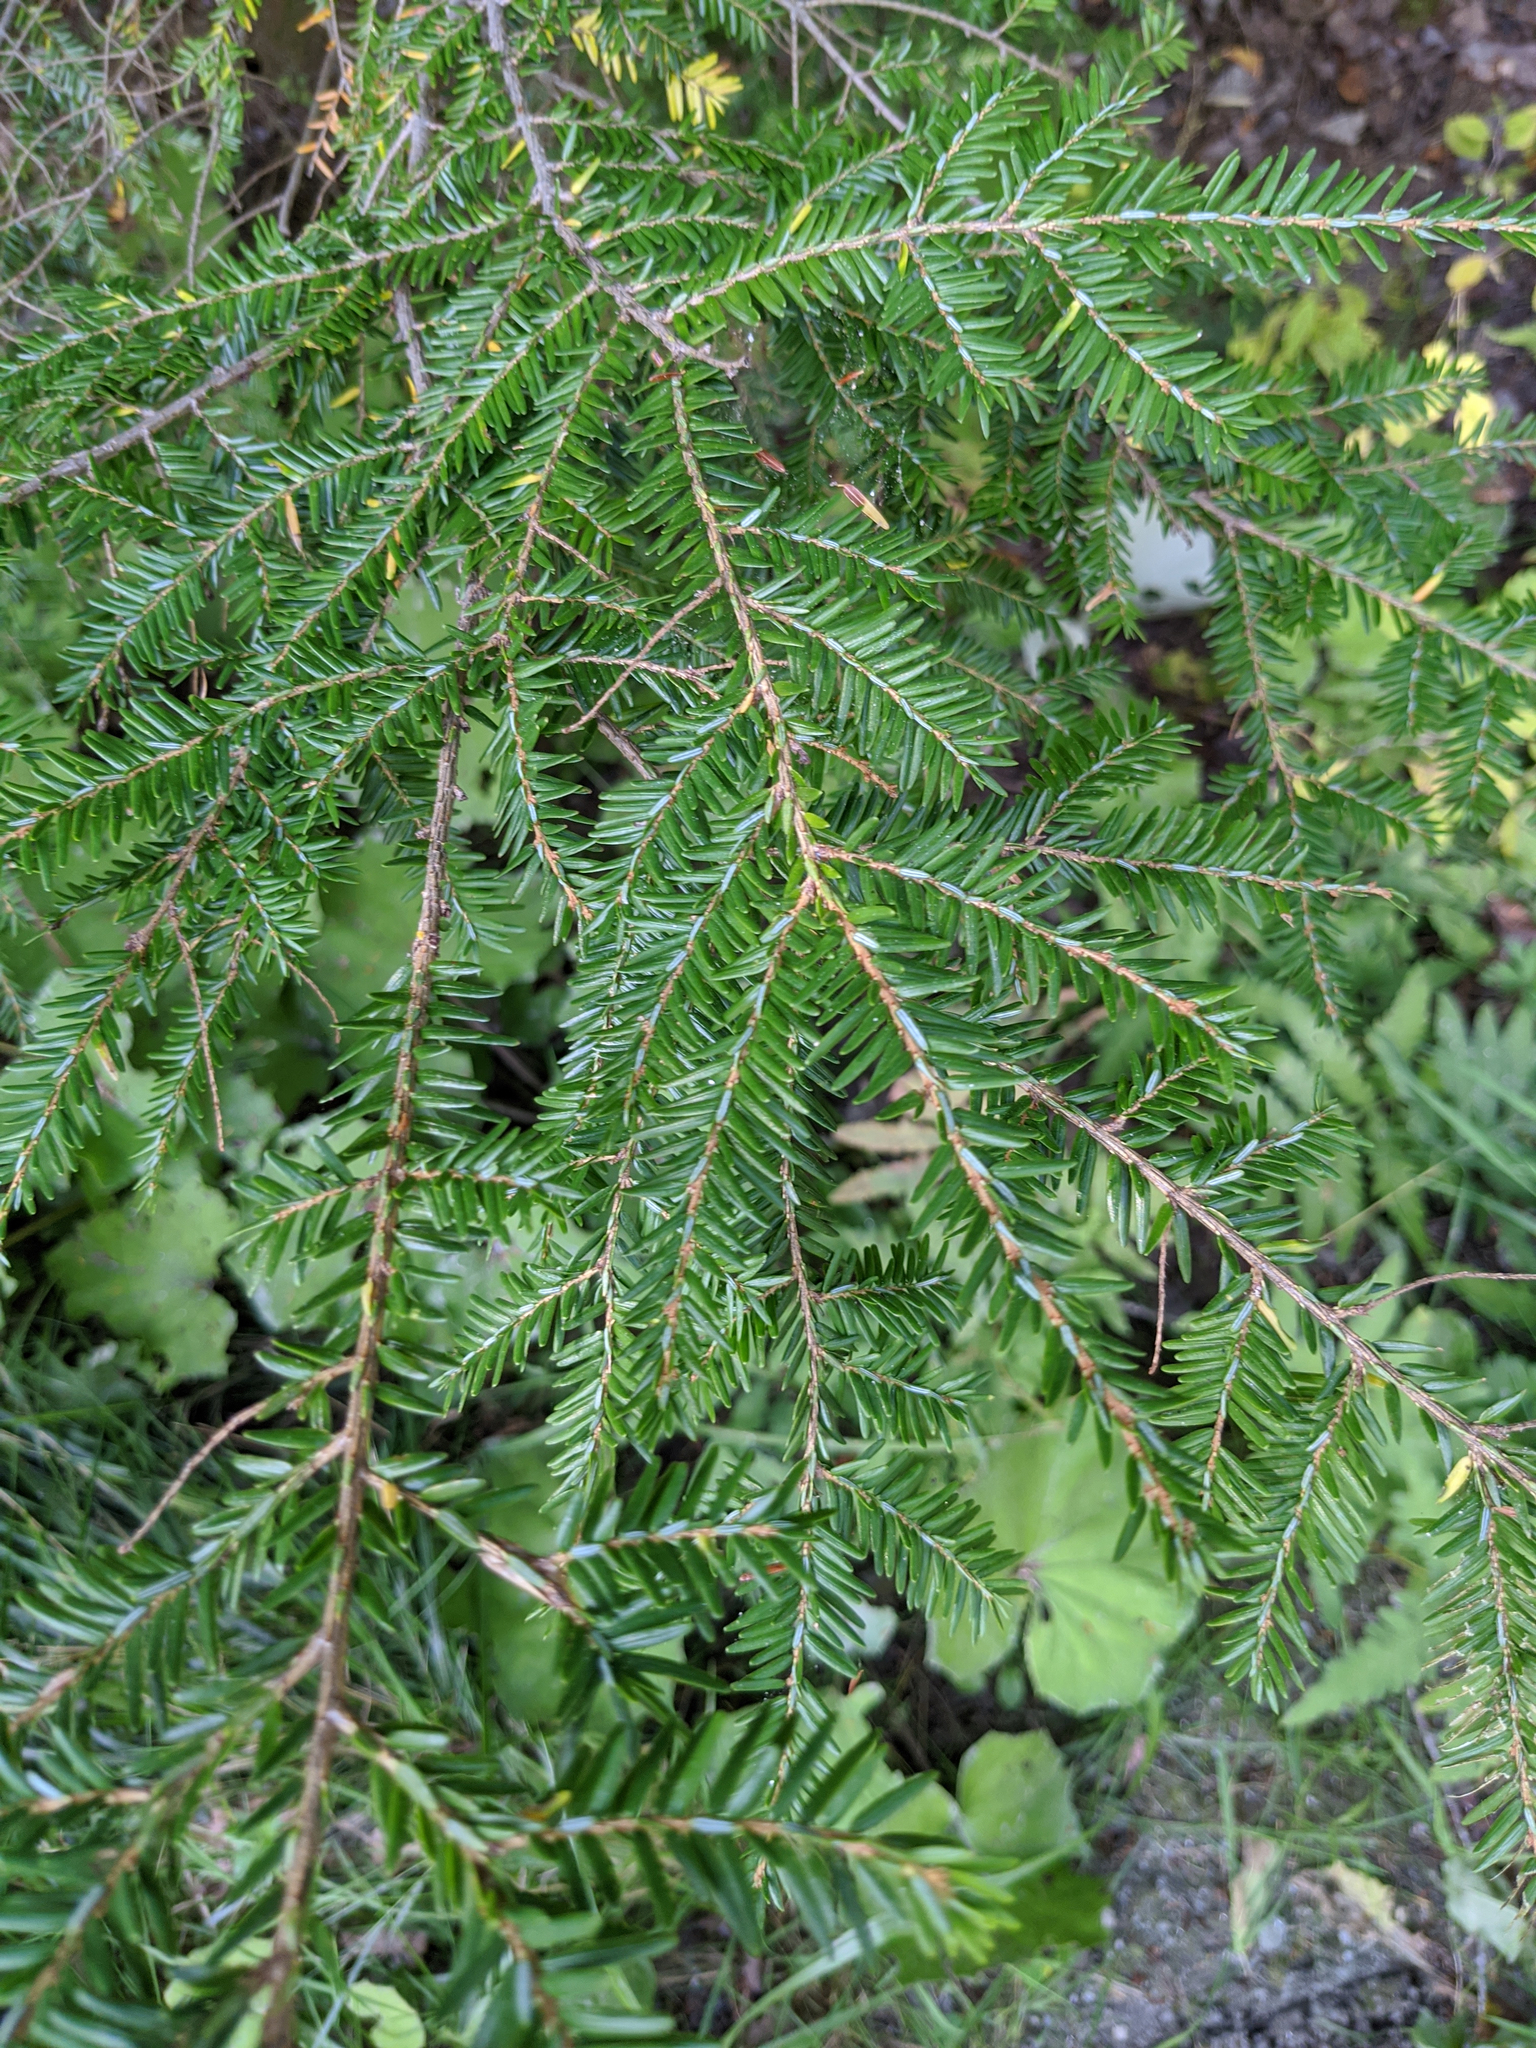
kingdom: Plantae
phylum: Tracheophyta
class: Pinopsida
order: Pinales
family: Pinaceae
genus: Tsuga
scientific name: Tsuga canadensis
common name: Eastern hemlock
